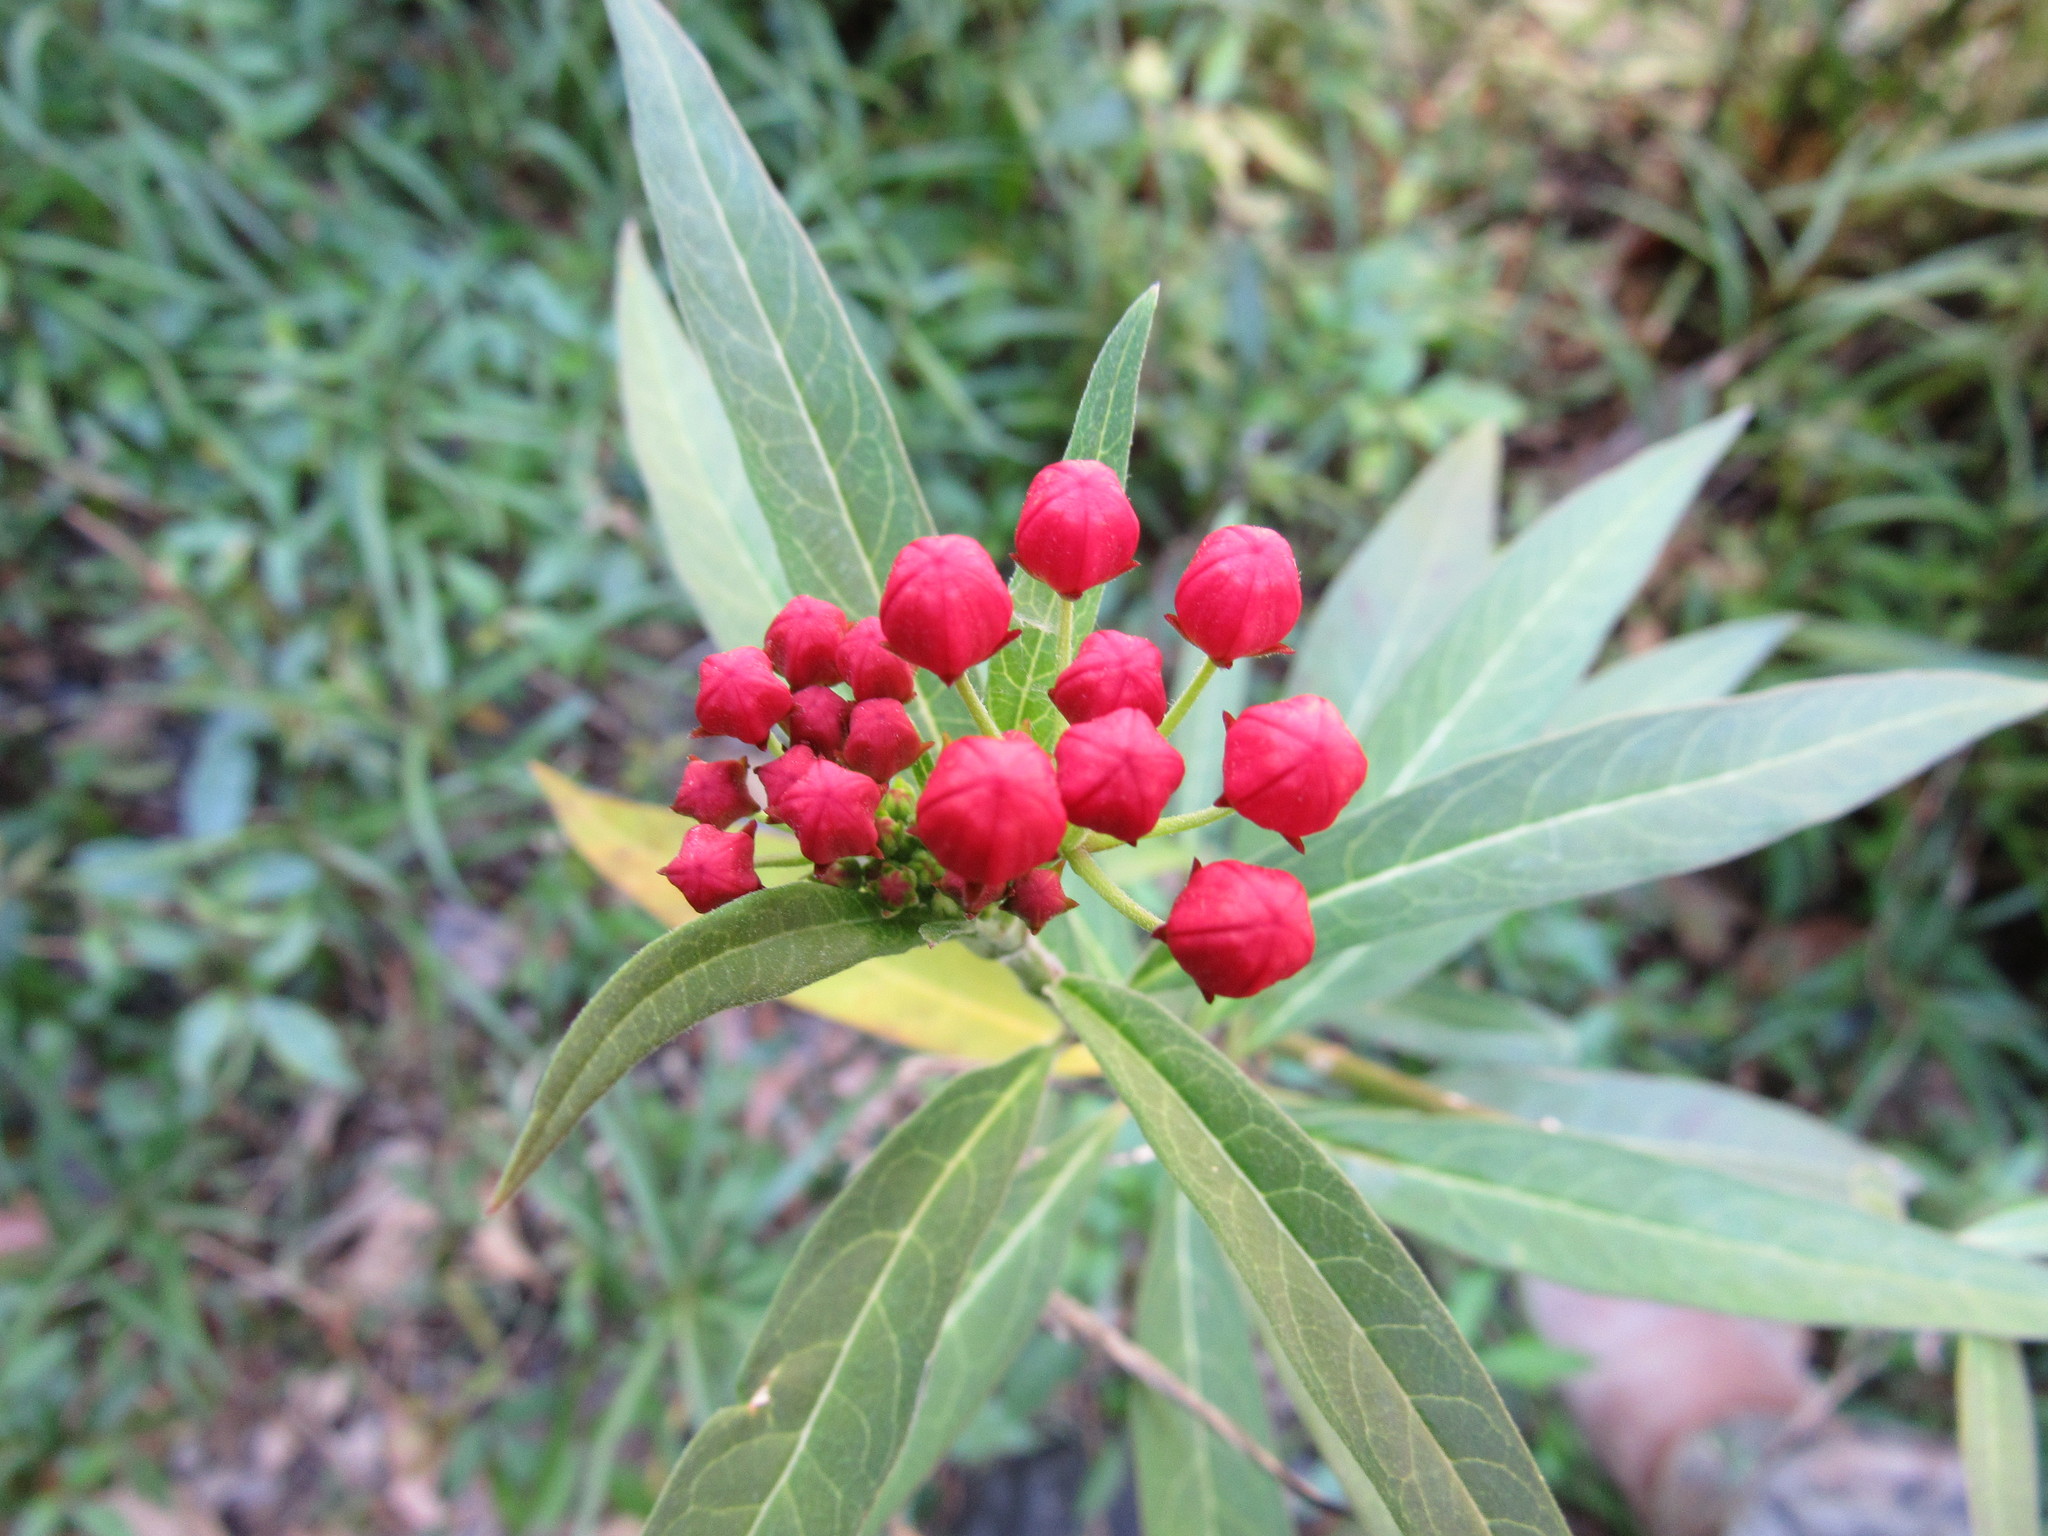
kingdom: Plantae
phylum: Tracheophyta
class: Magnoliopsida
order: Gentianales
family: Apocynaceae
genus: Asclepias
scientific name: Asclepias curassavica
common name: Bloodflower
